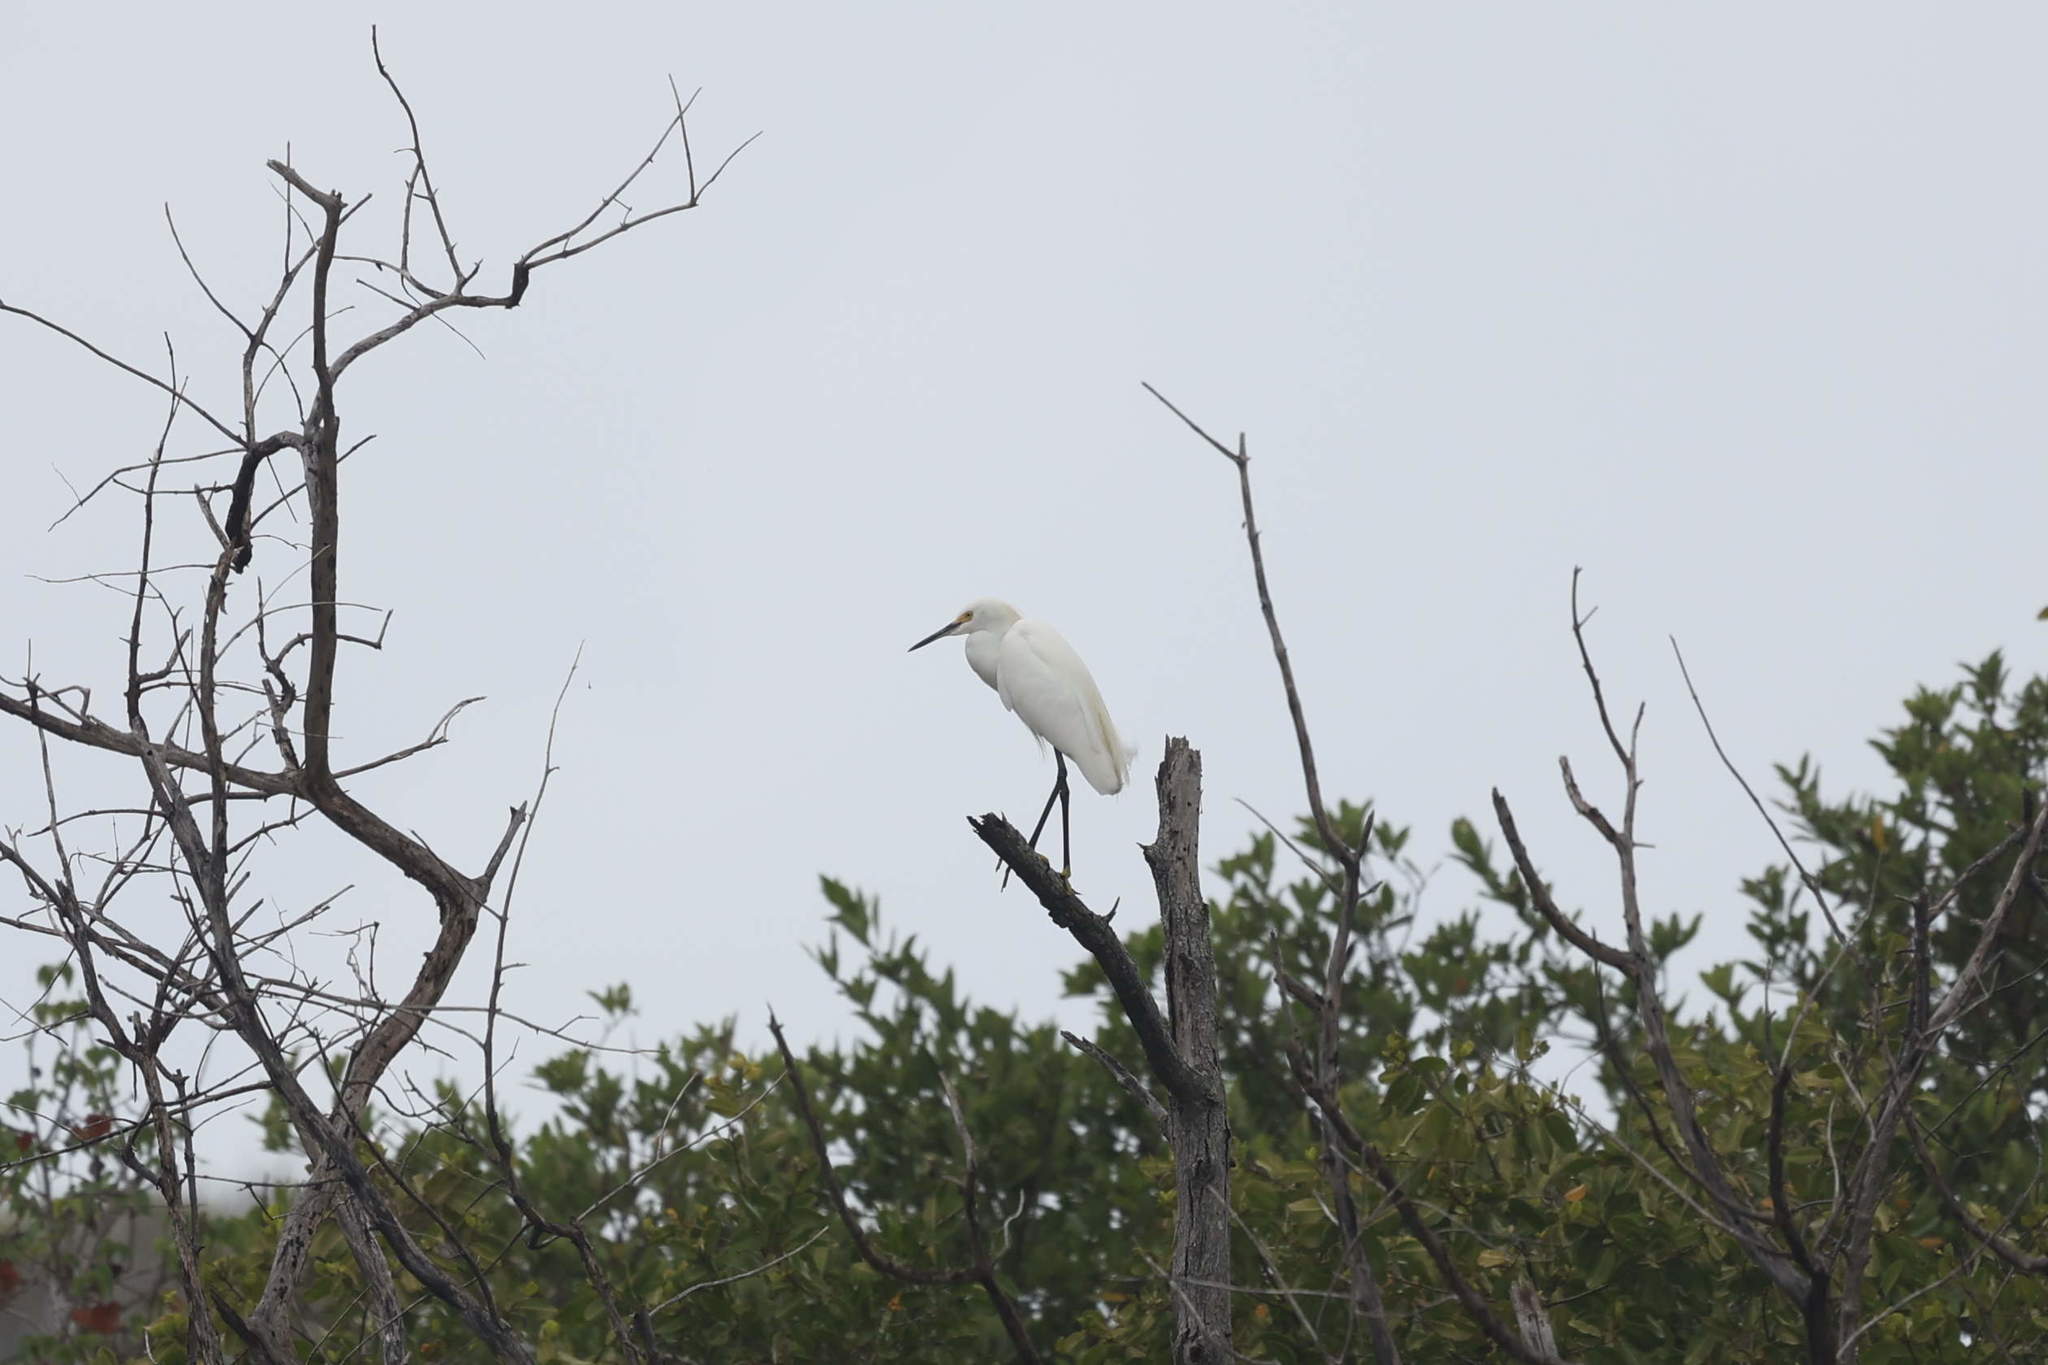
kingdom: Animalia
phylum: Chordata
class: Aves
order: Pelecaniformes
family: Ardeidae
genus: Egretta
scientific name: Egretta thula
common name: Snowy egret
